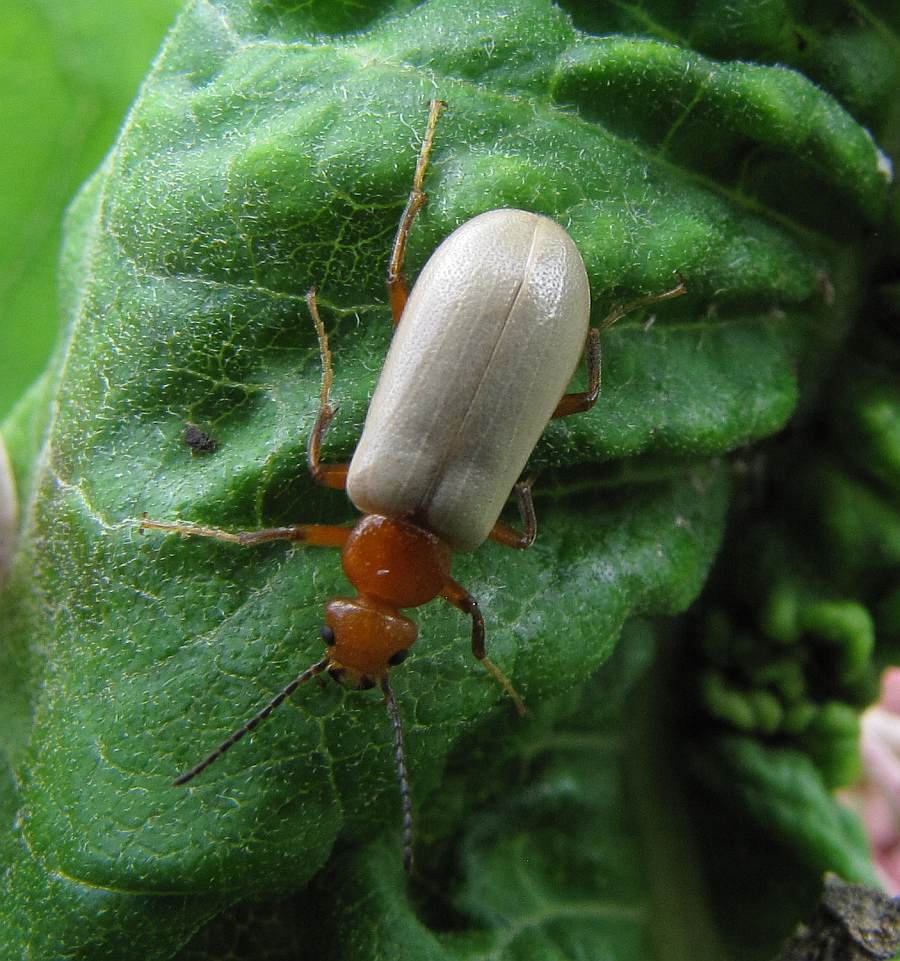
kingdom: Animalia
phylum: Arthropoda
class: Insecta
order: Coleoptera
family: Meloidae
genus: Zonitis
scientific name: Zonitis bilineata
